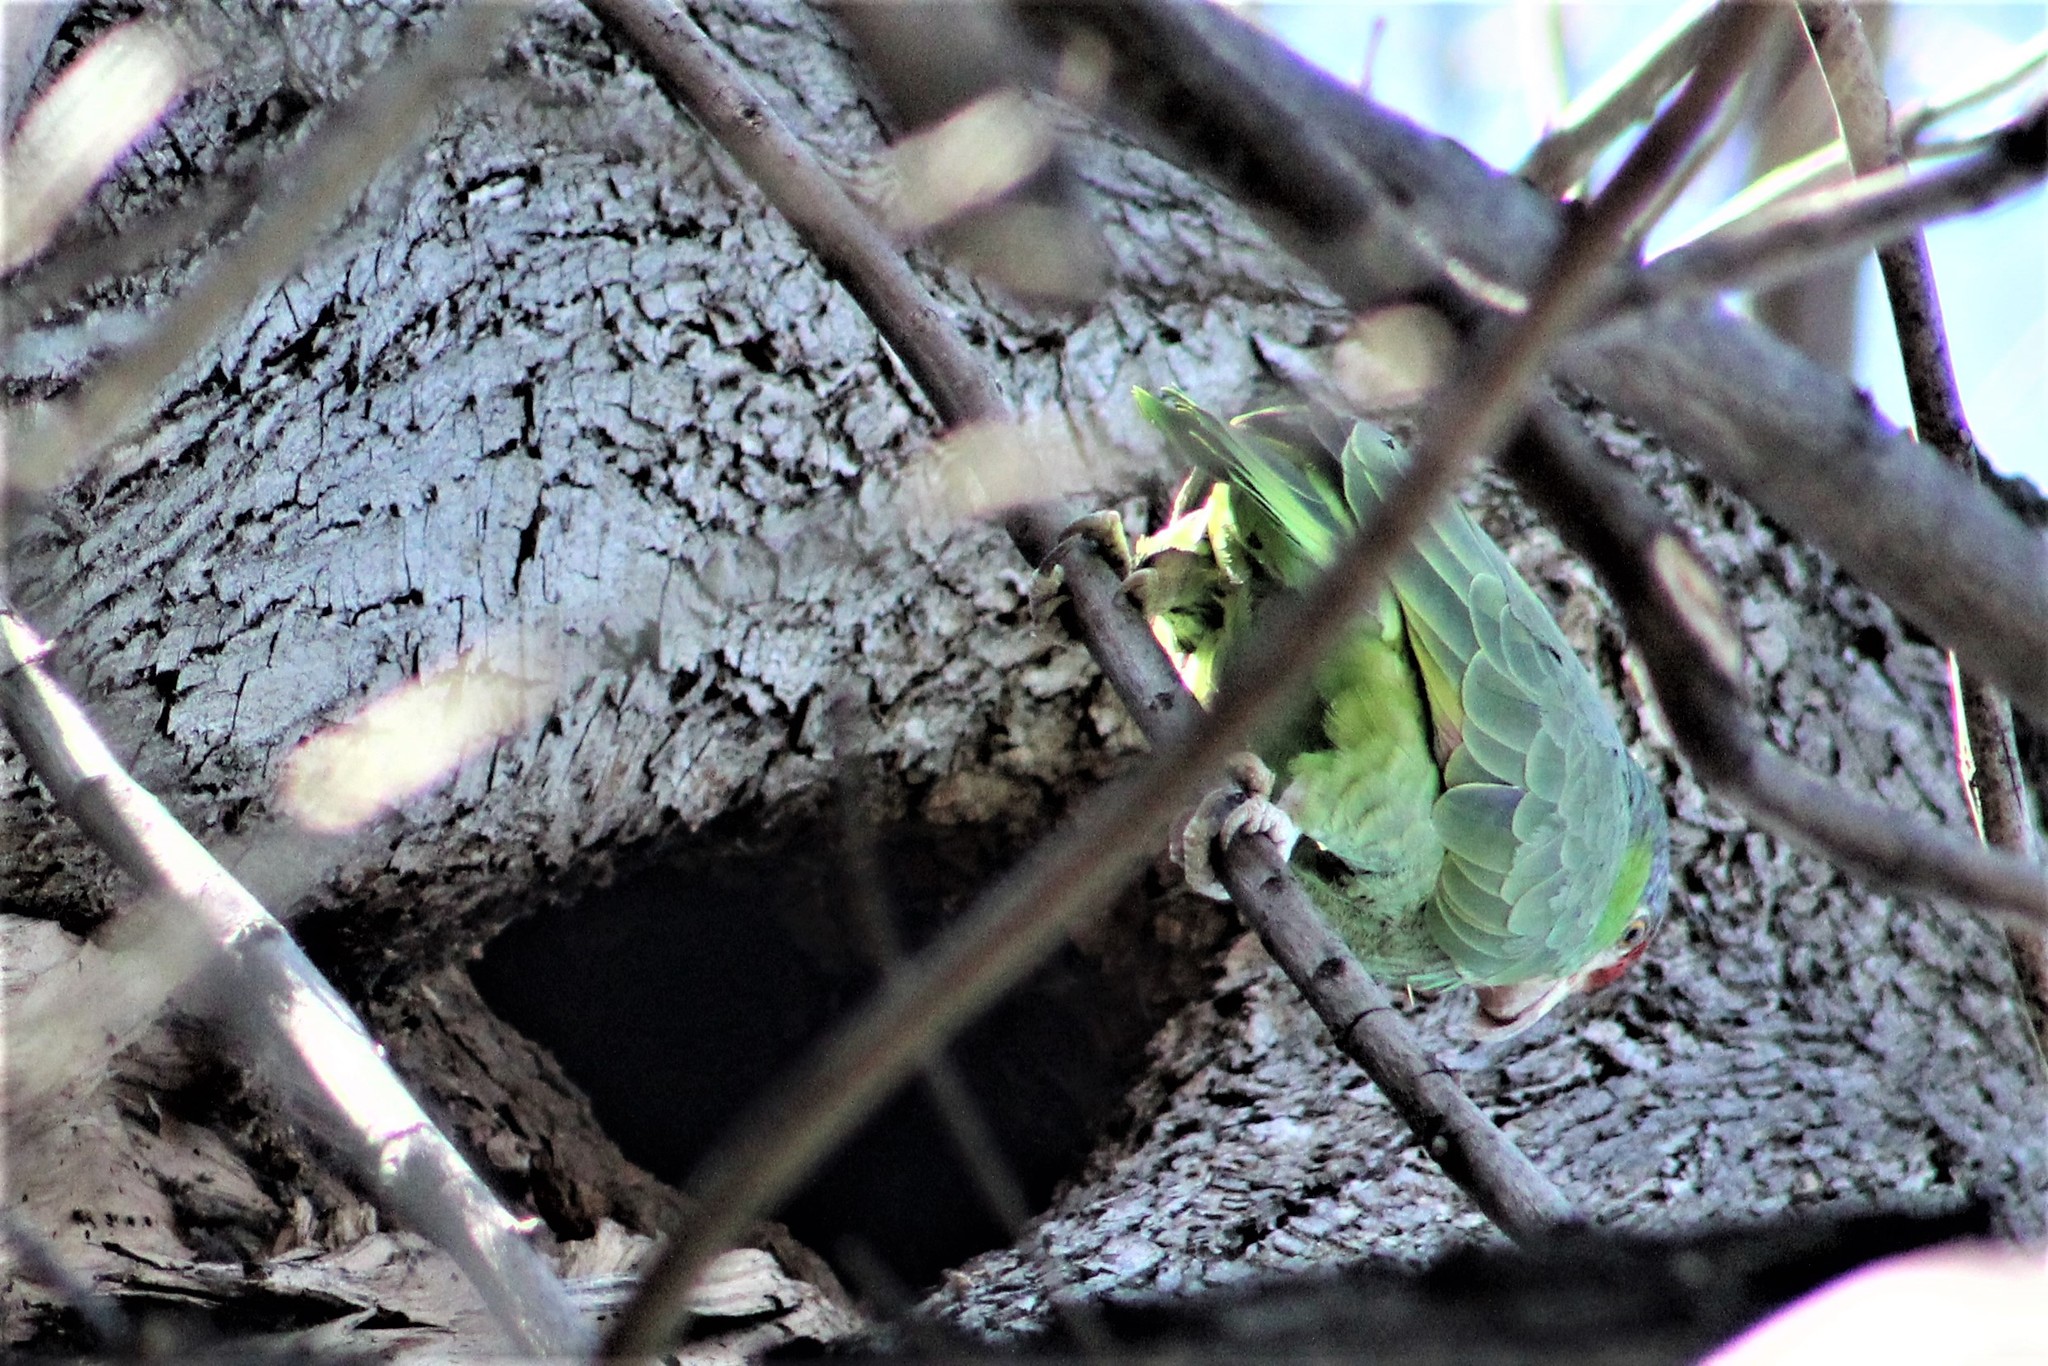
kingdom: Animalia
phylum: Chordata
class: Aves
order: Psittaciformes
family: Psittacidae
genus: Amazona
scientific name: Amazona viridigenalis
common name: Red-crowned amazon
